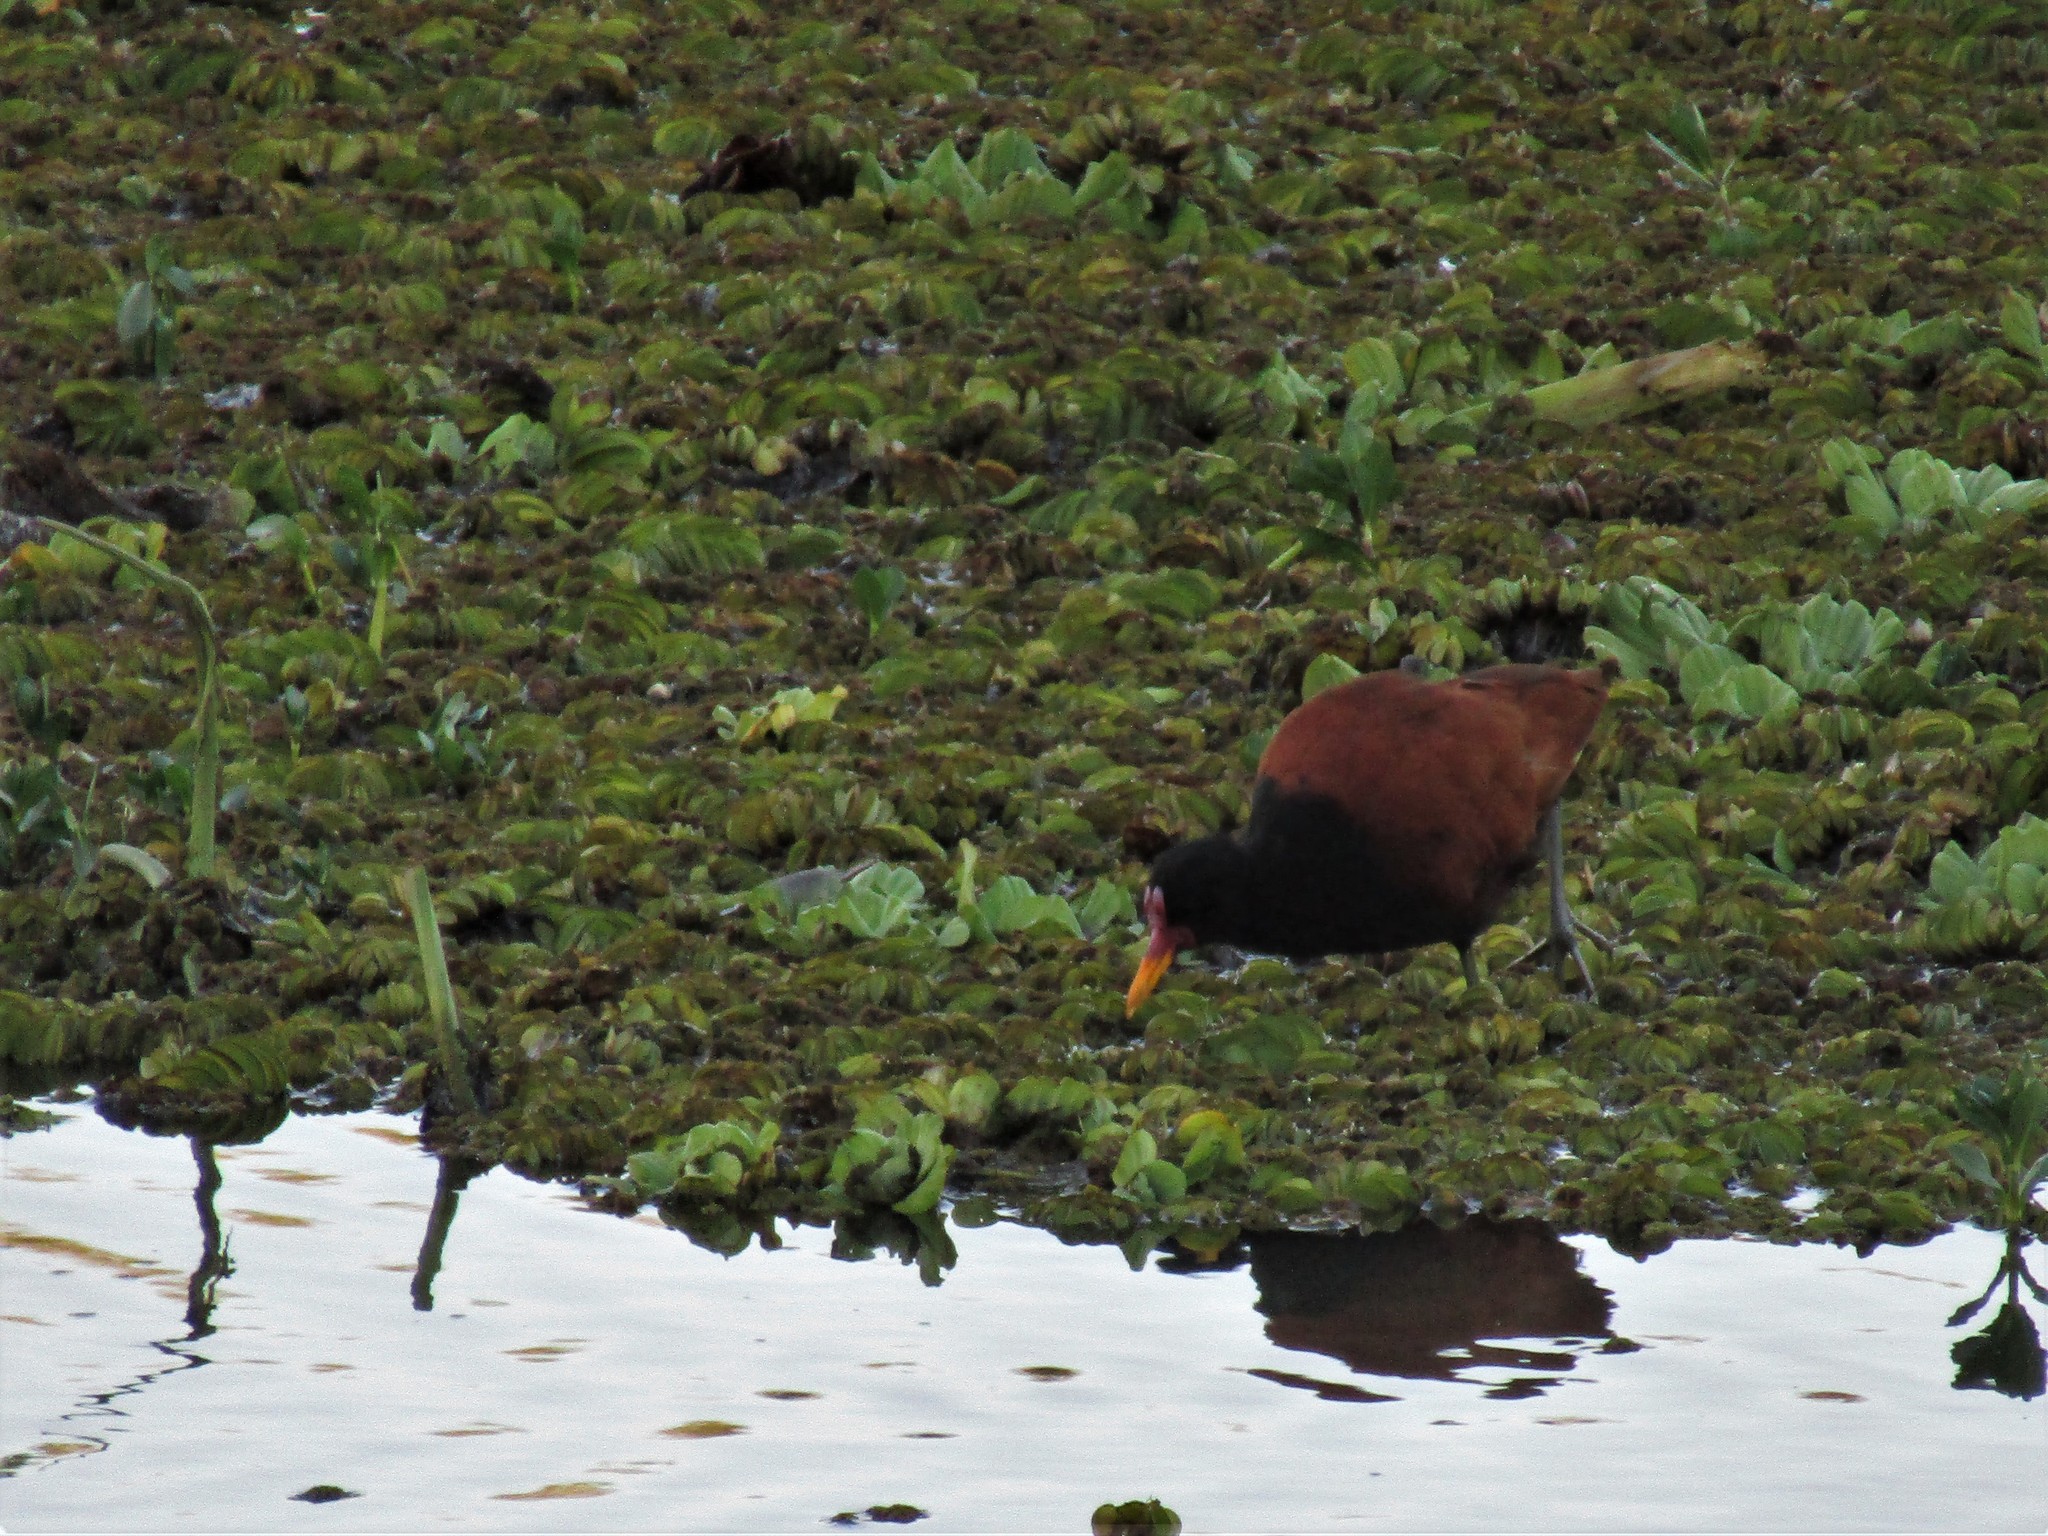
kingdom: Animalia
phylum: Chordata
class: Aves
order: Charadriiformes
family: Jacanidae
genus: Jacana
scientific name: Jacana jacana
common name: Wattled jacana
